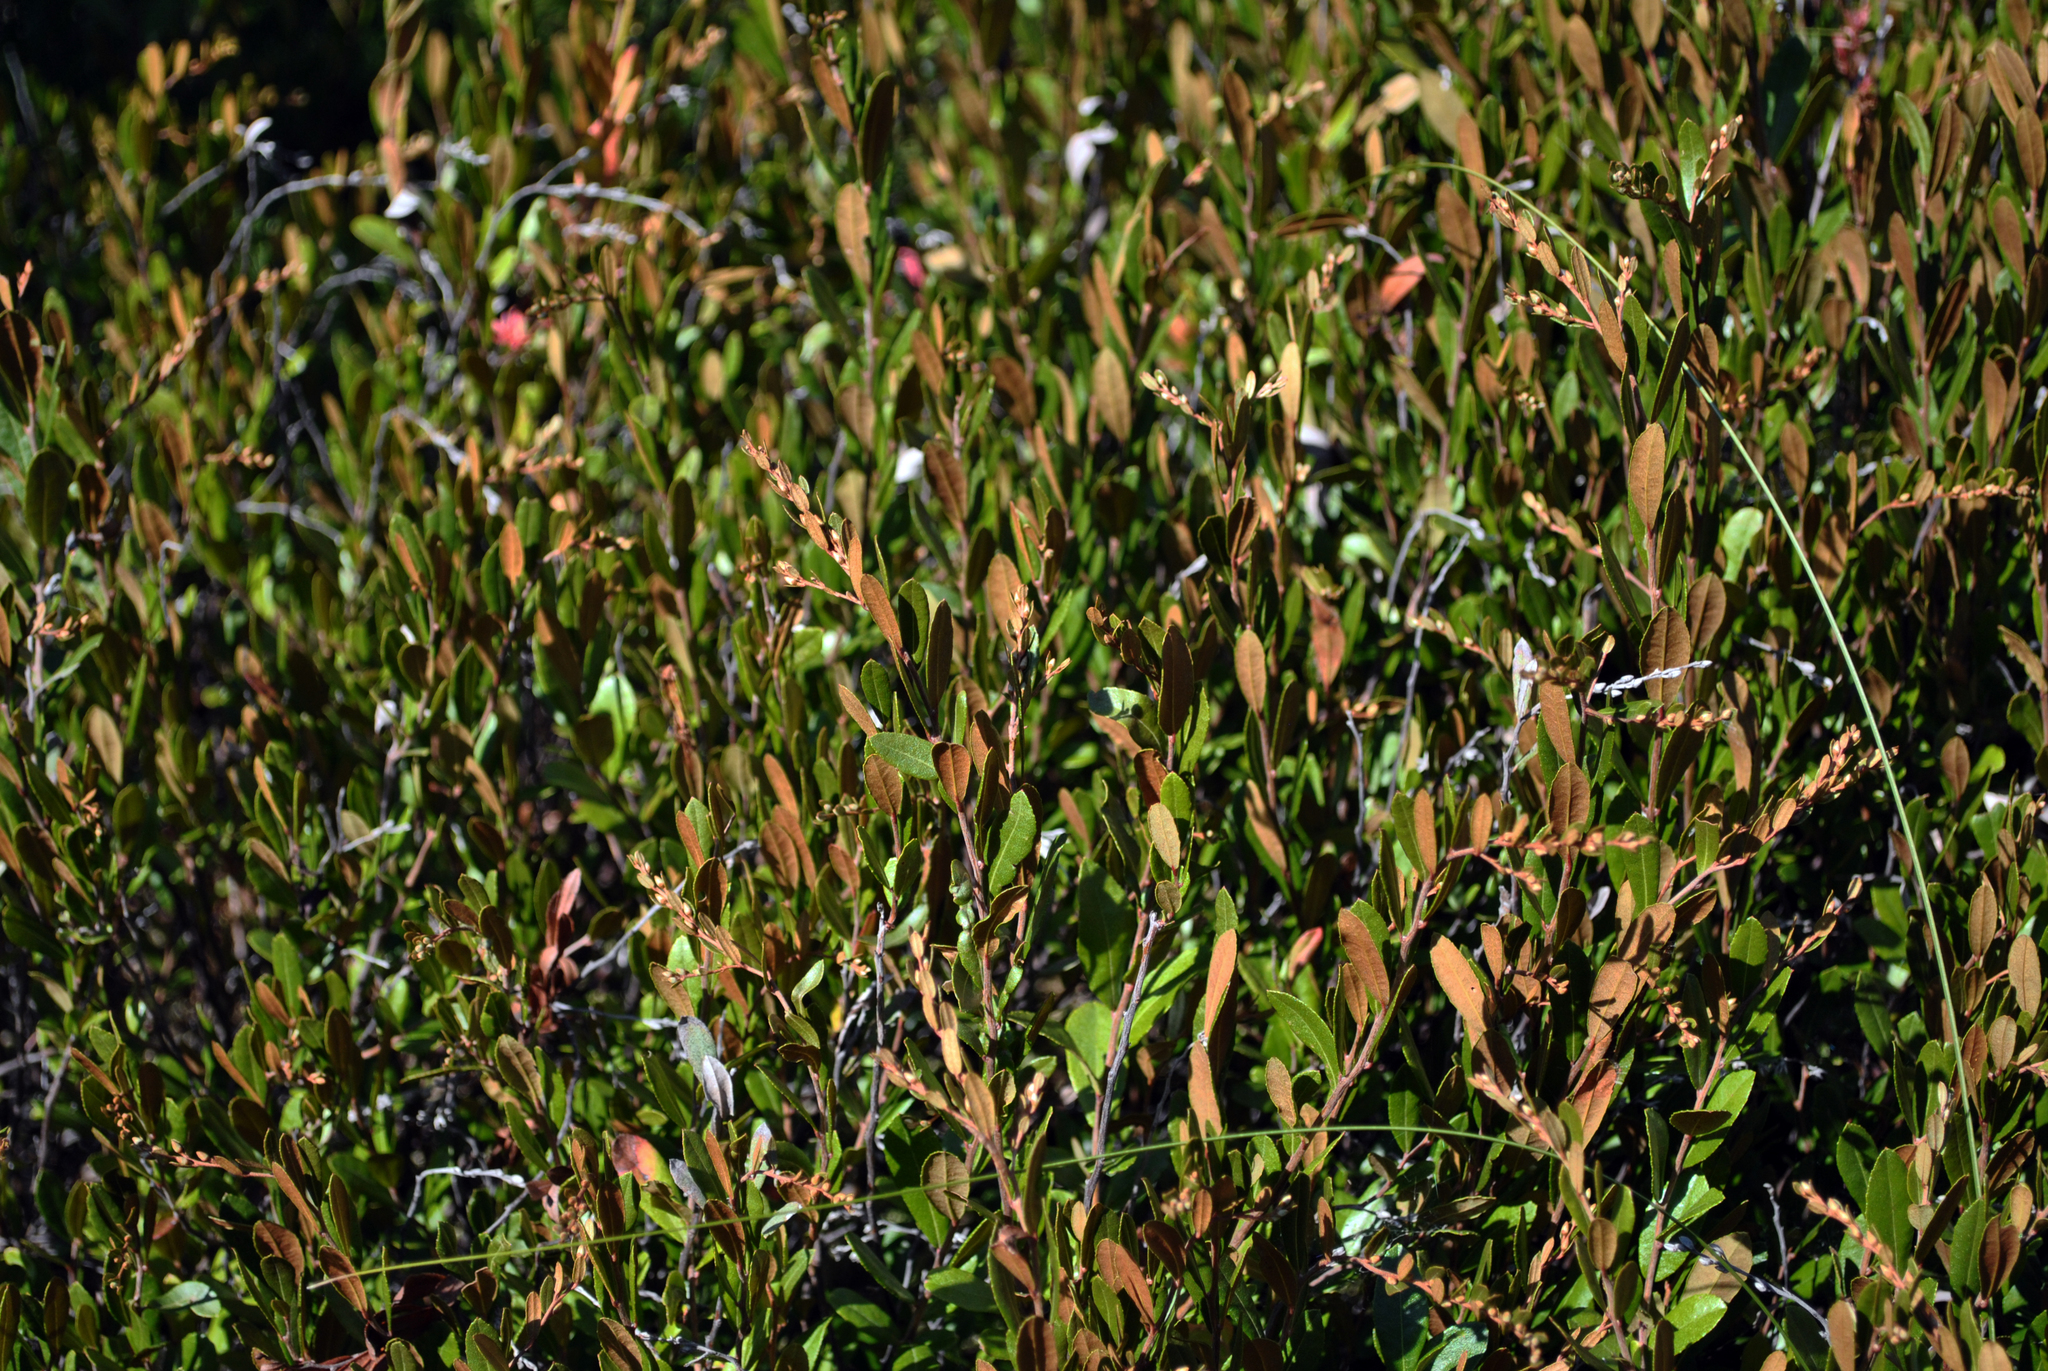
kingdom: Plantae
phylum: Tracheophyta
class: Magnoliopsida
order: Ericales
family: Ericaceae
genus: Chamaedaphne
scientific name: Chamaedaphne calyculata
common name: Leatherleaf
